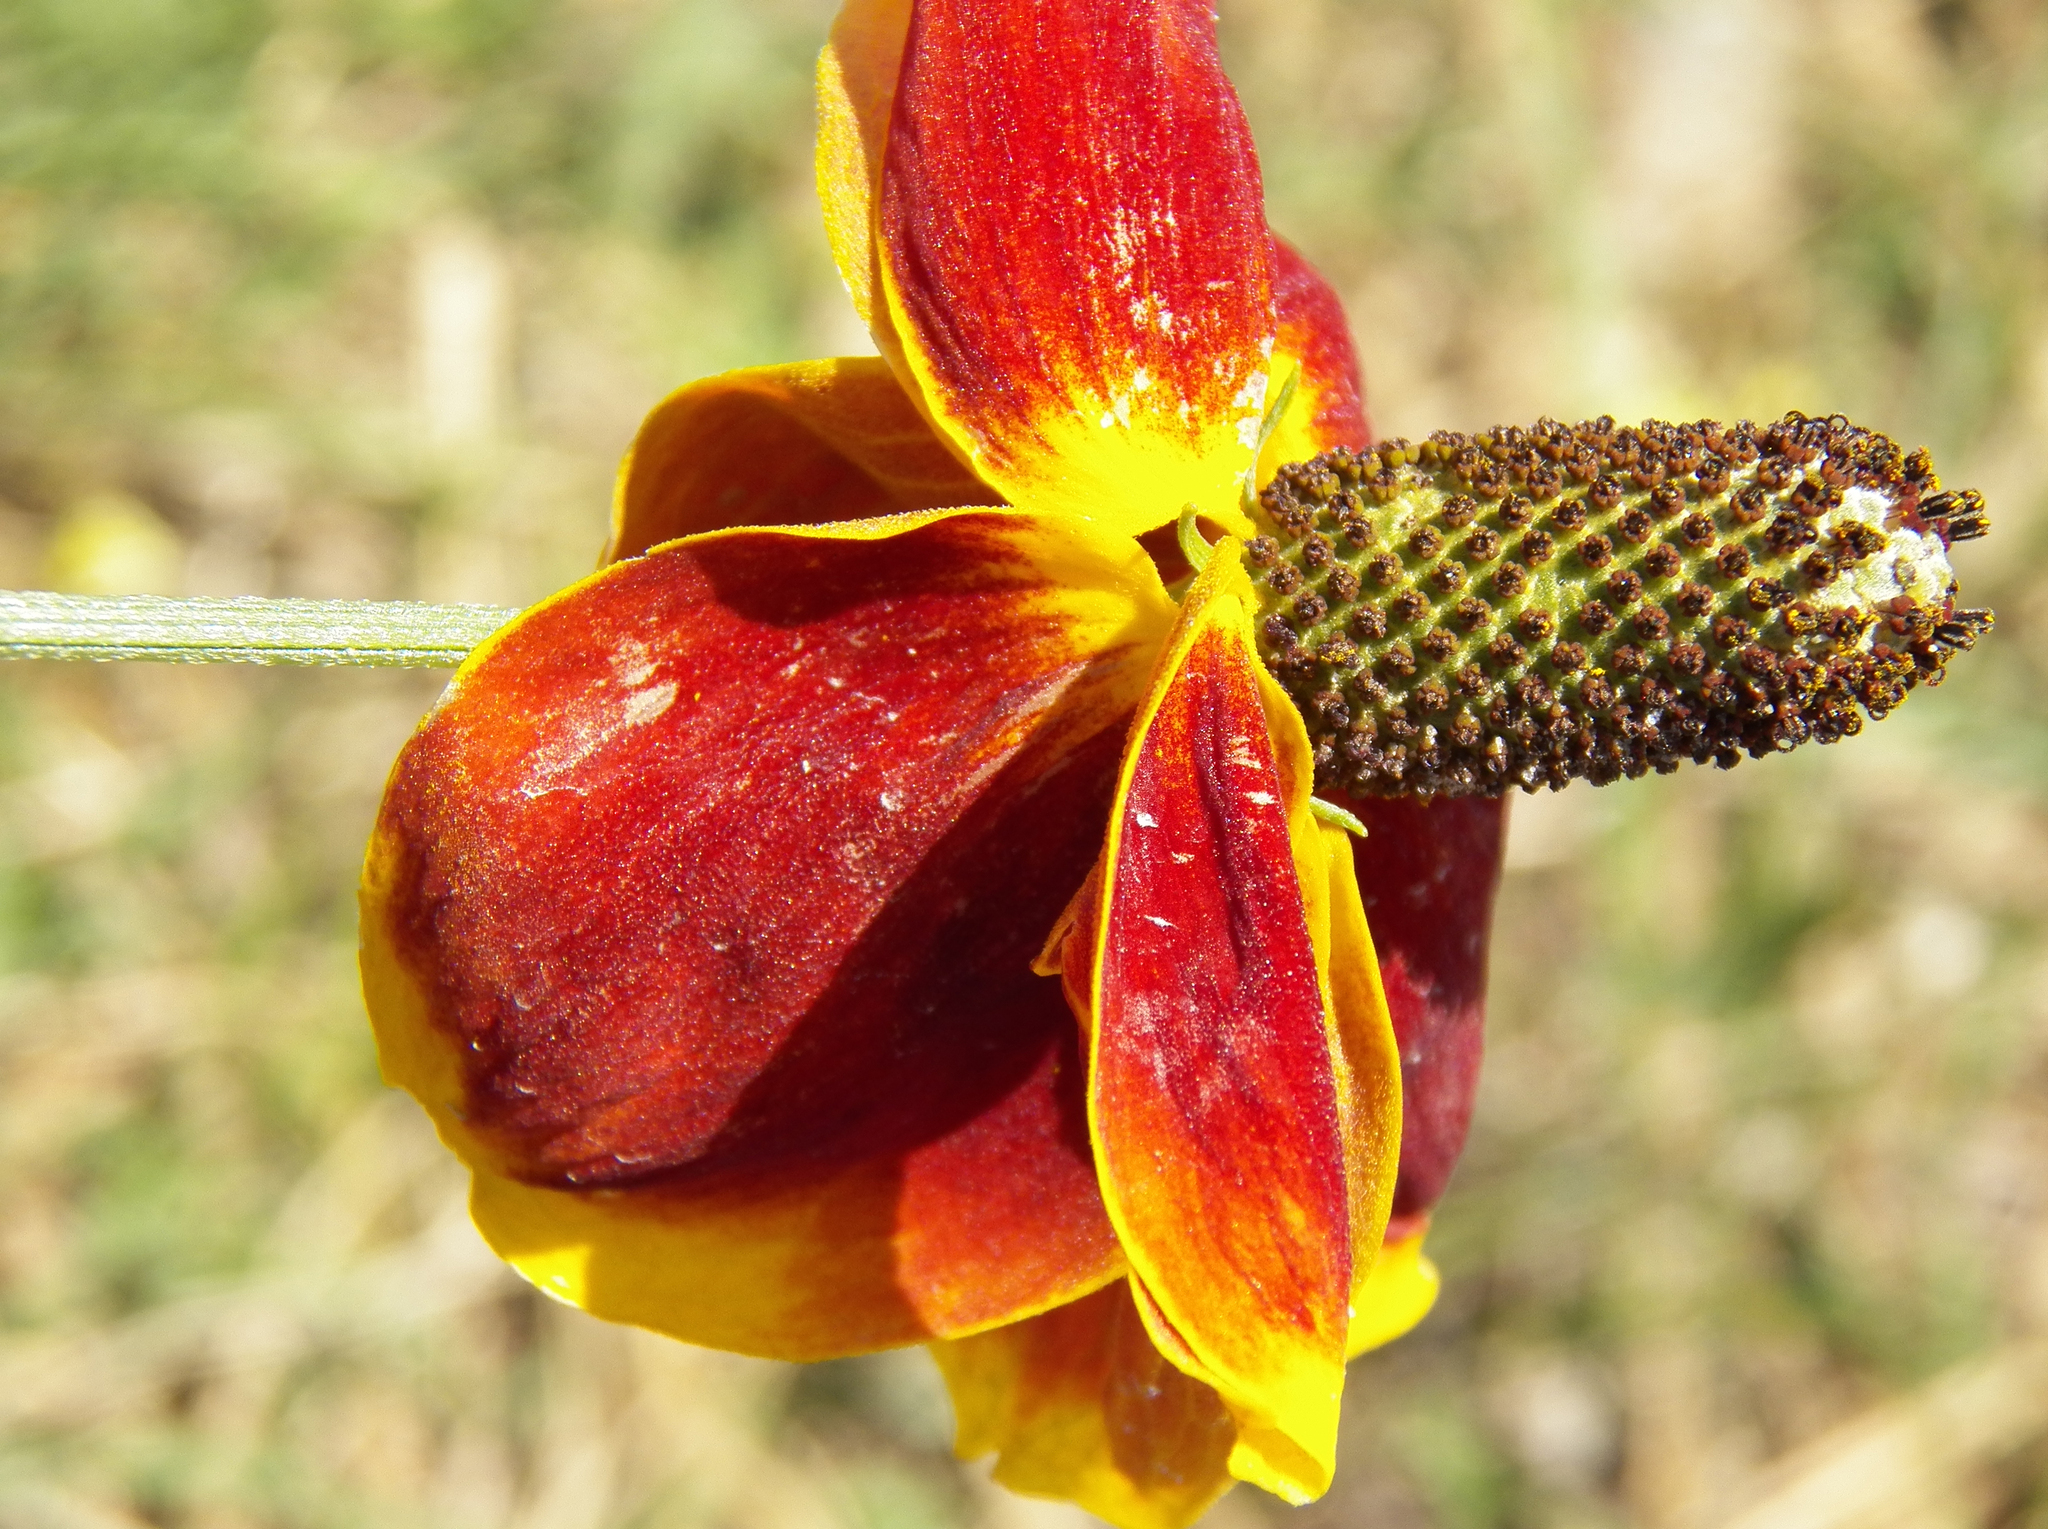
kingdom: Plantae
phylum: Tracheophyta
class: Magnoliopsida
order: Asterales
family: Asteraceae
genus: Ratibida
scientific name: Ratibida columnifera
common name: Prairie coneflower
